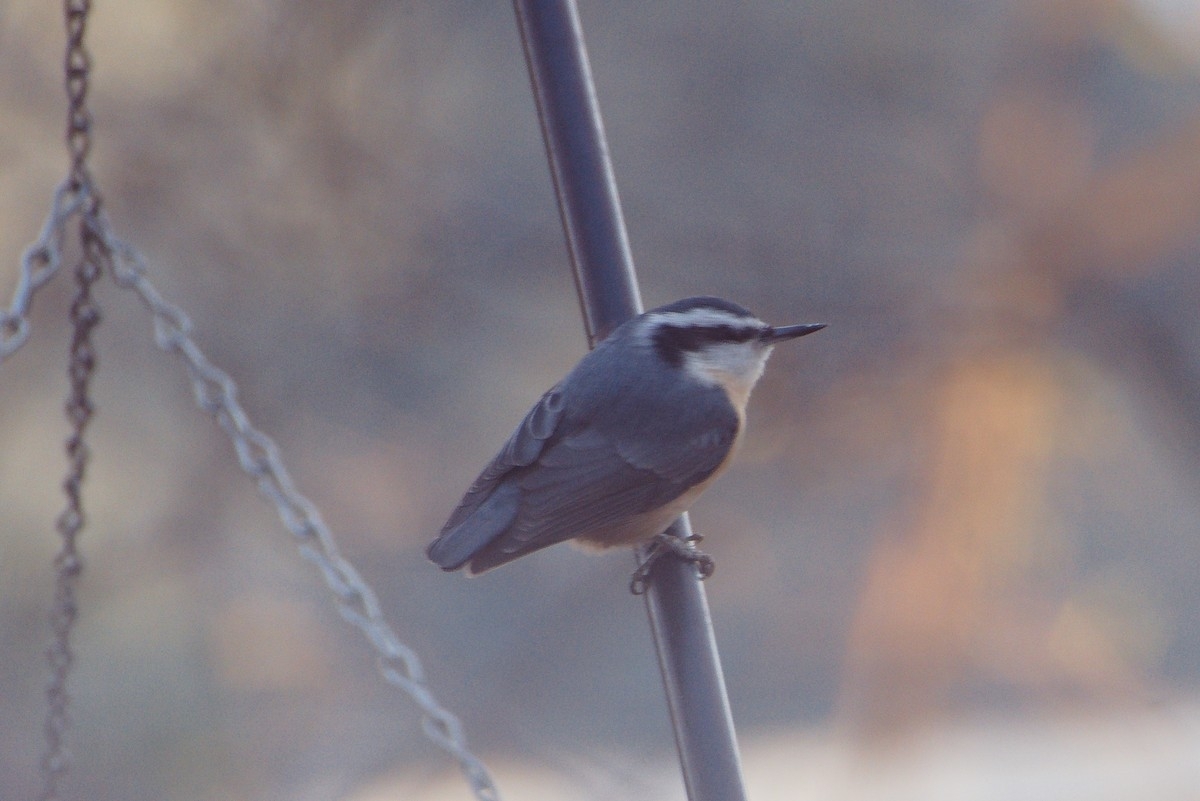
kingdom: Animalia
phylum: Chordata
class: Aves
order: Passeriformes
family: Sittidae
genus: Sitta
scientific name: Sitta canadensis
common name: Red-breasted nuthatch
